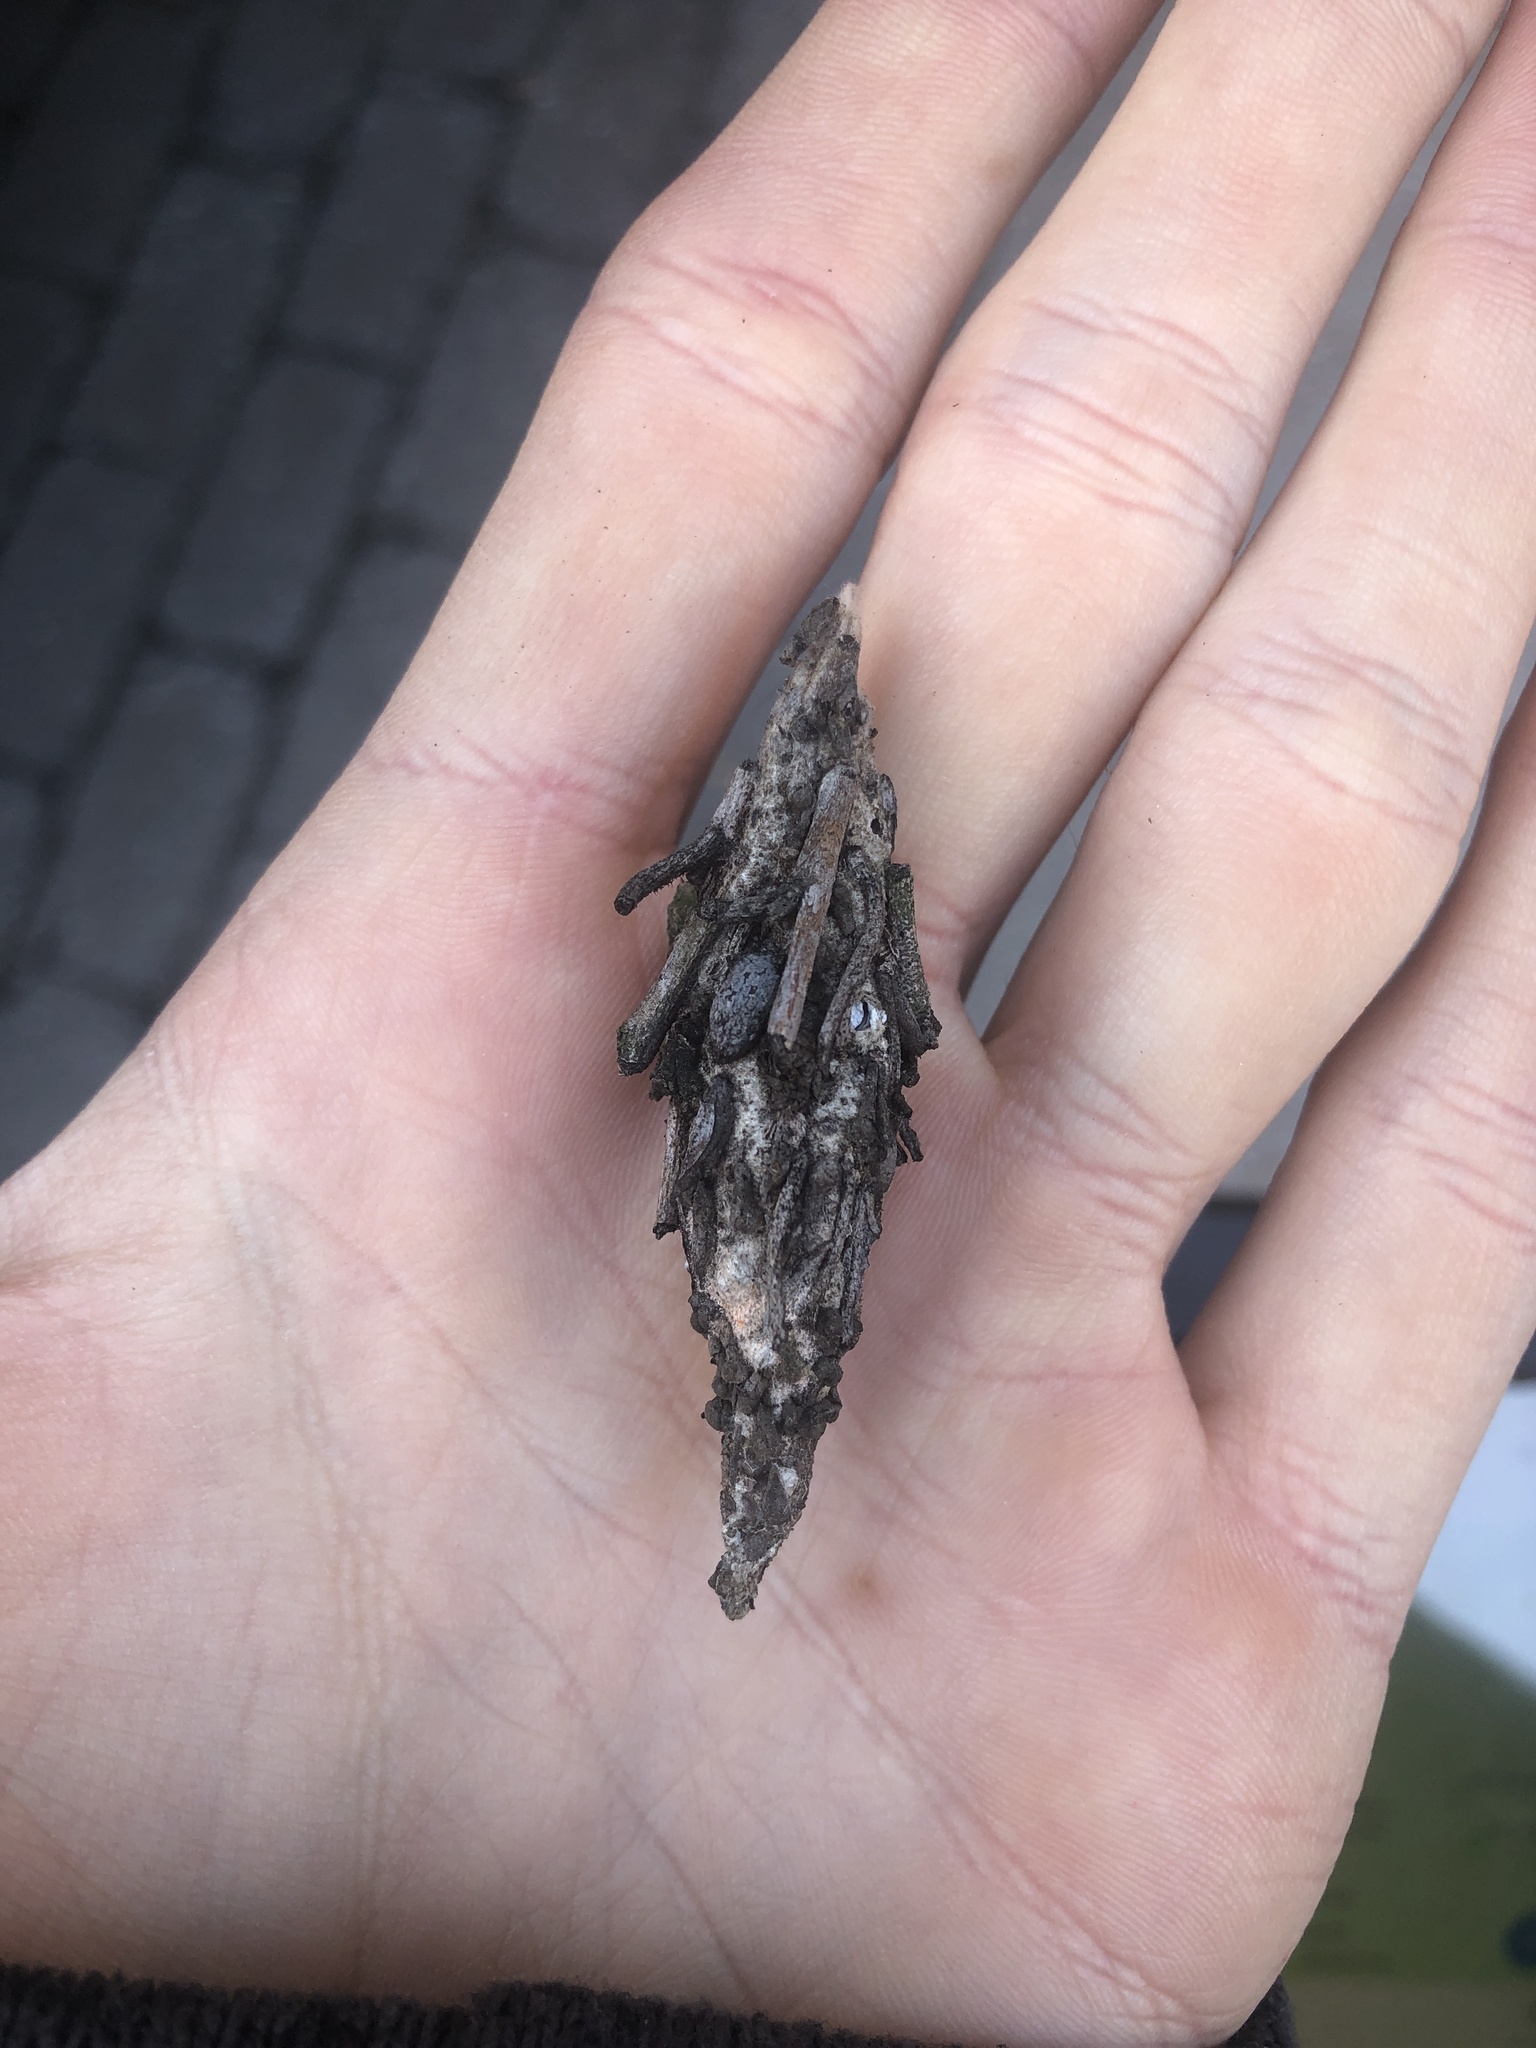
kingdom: Animalia
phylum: Arthropoda
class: Insecta
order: Lepidoptera
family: Psychidae
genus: Thyridopteryx
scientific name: Thyridopteryx ephemeraeformis
